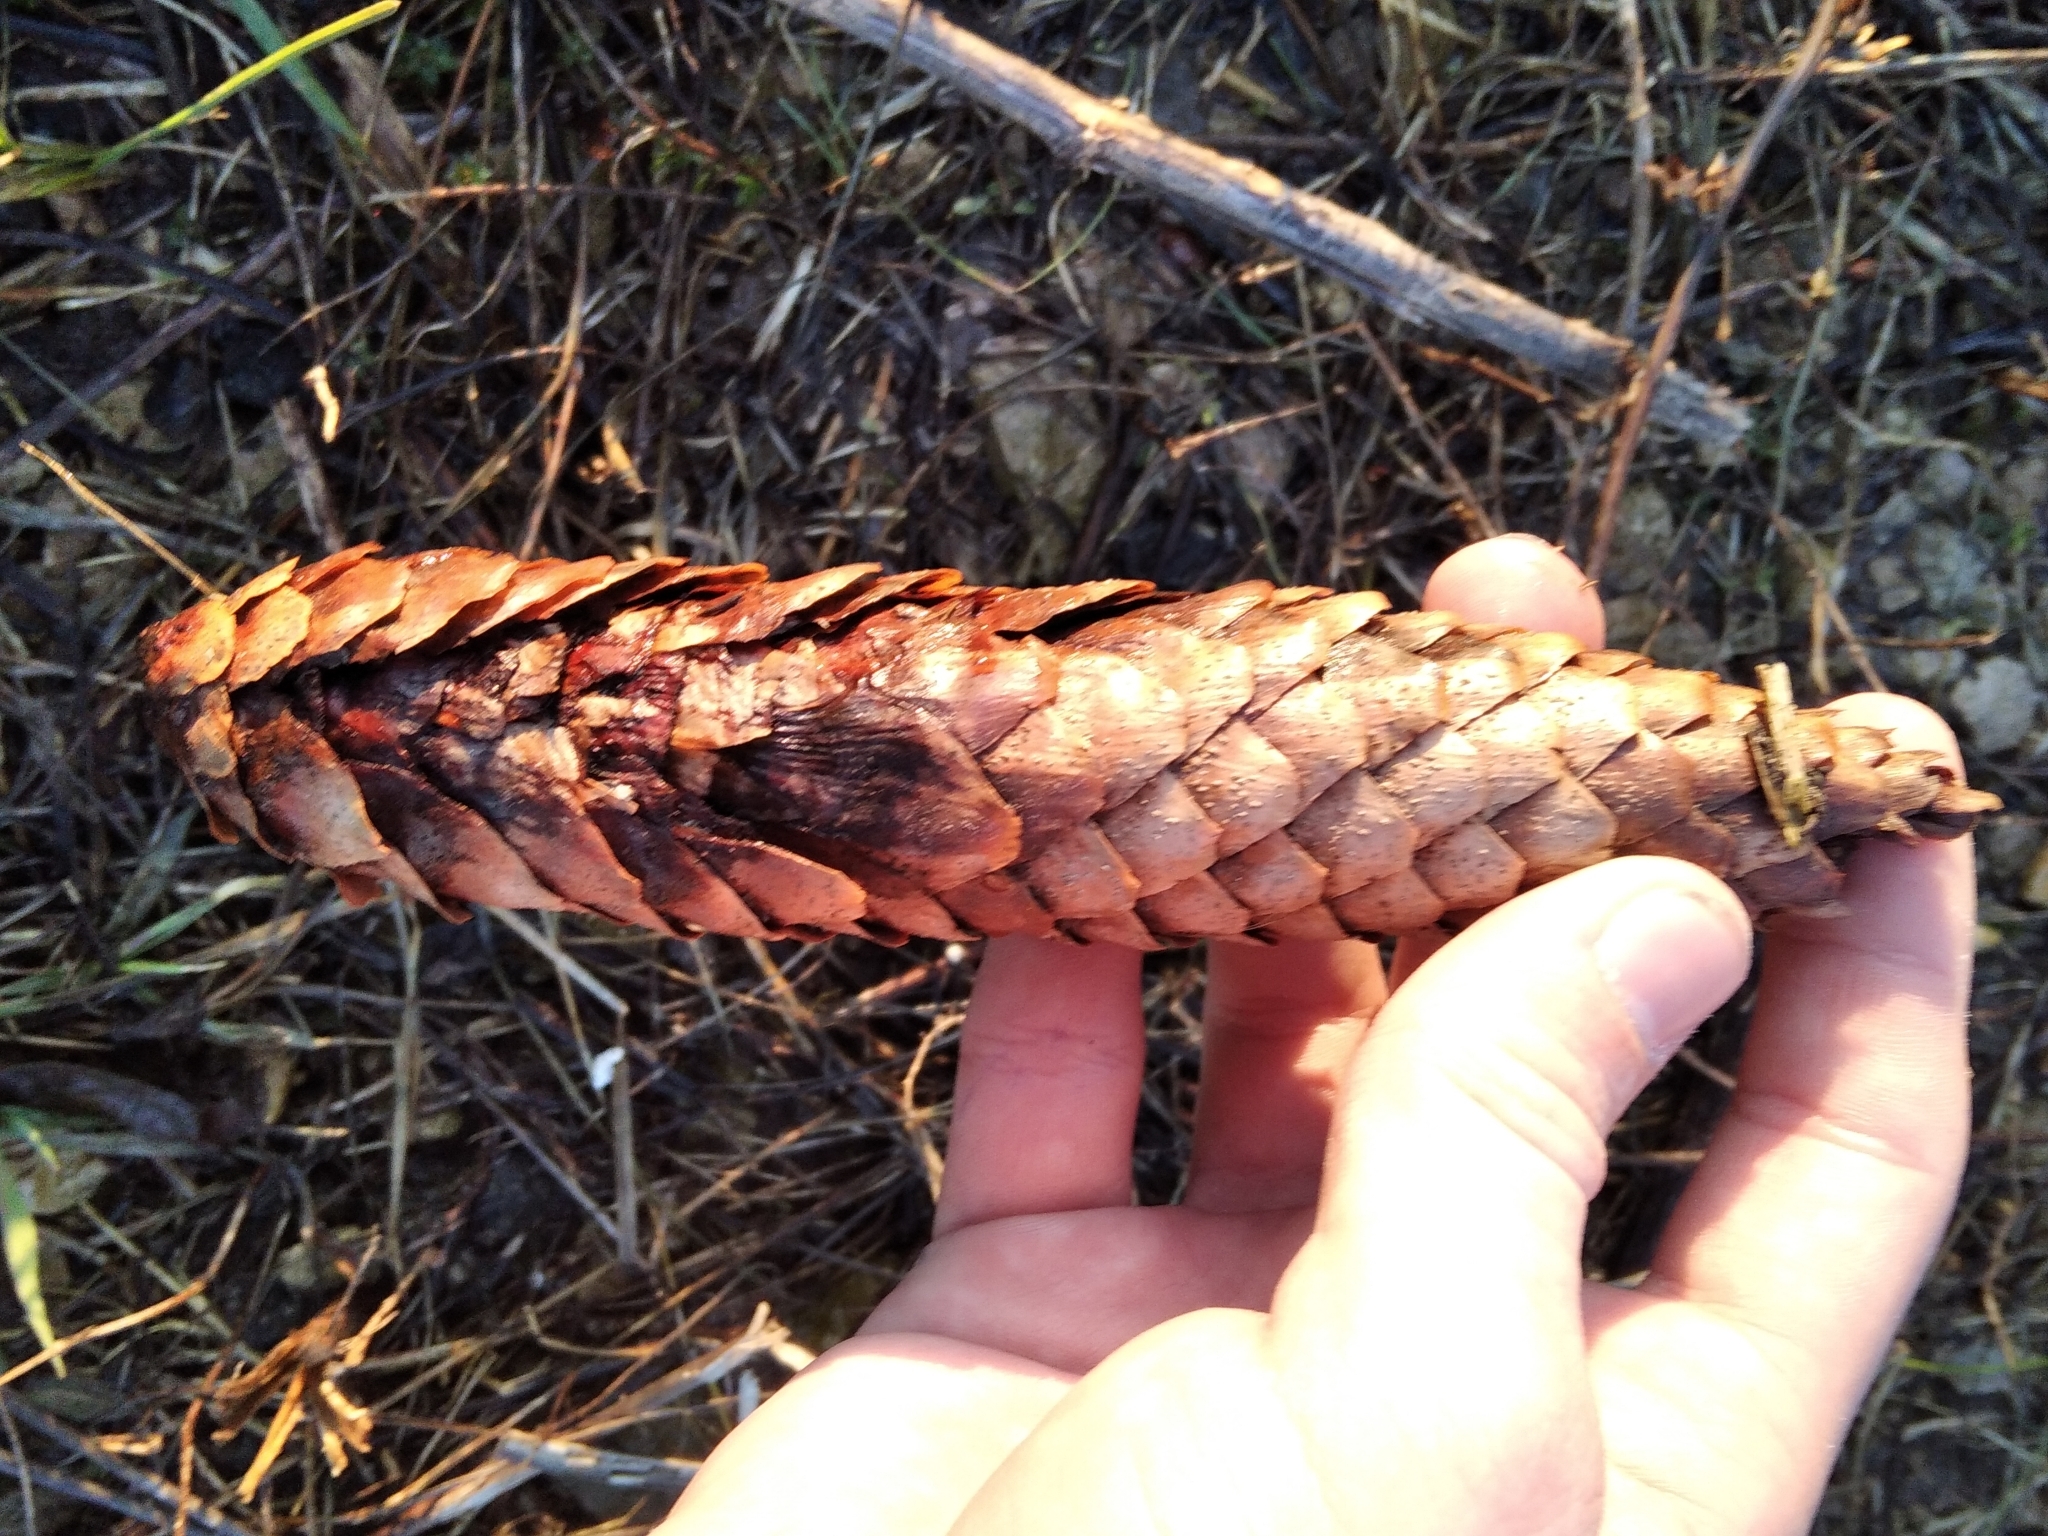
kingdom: Plantae
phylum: Tracheophyta
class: Pinopsida
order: Pinales
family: Pinaceae
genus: Picea
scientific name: Picea abies
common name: Norway spruce
